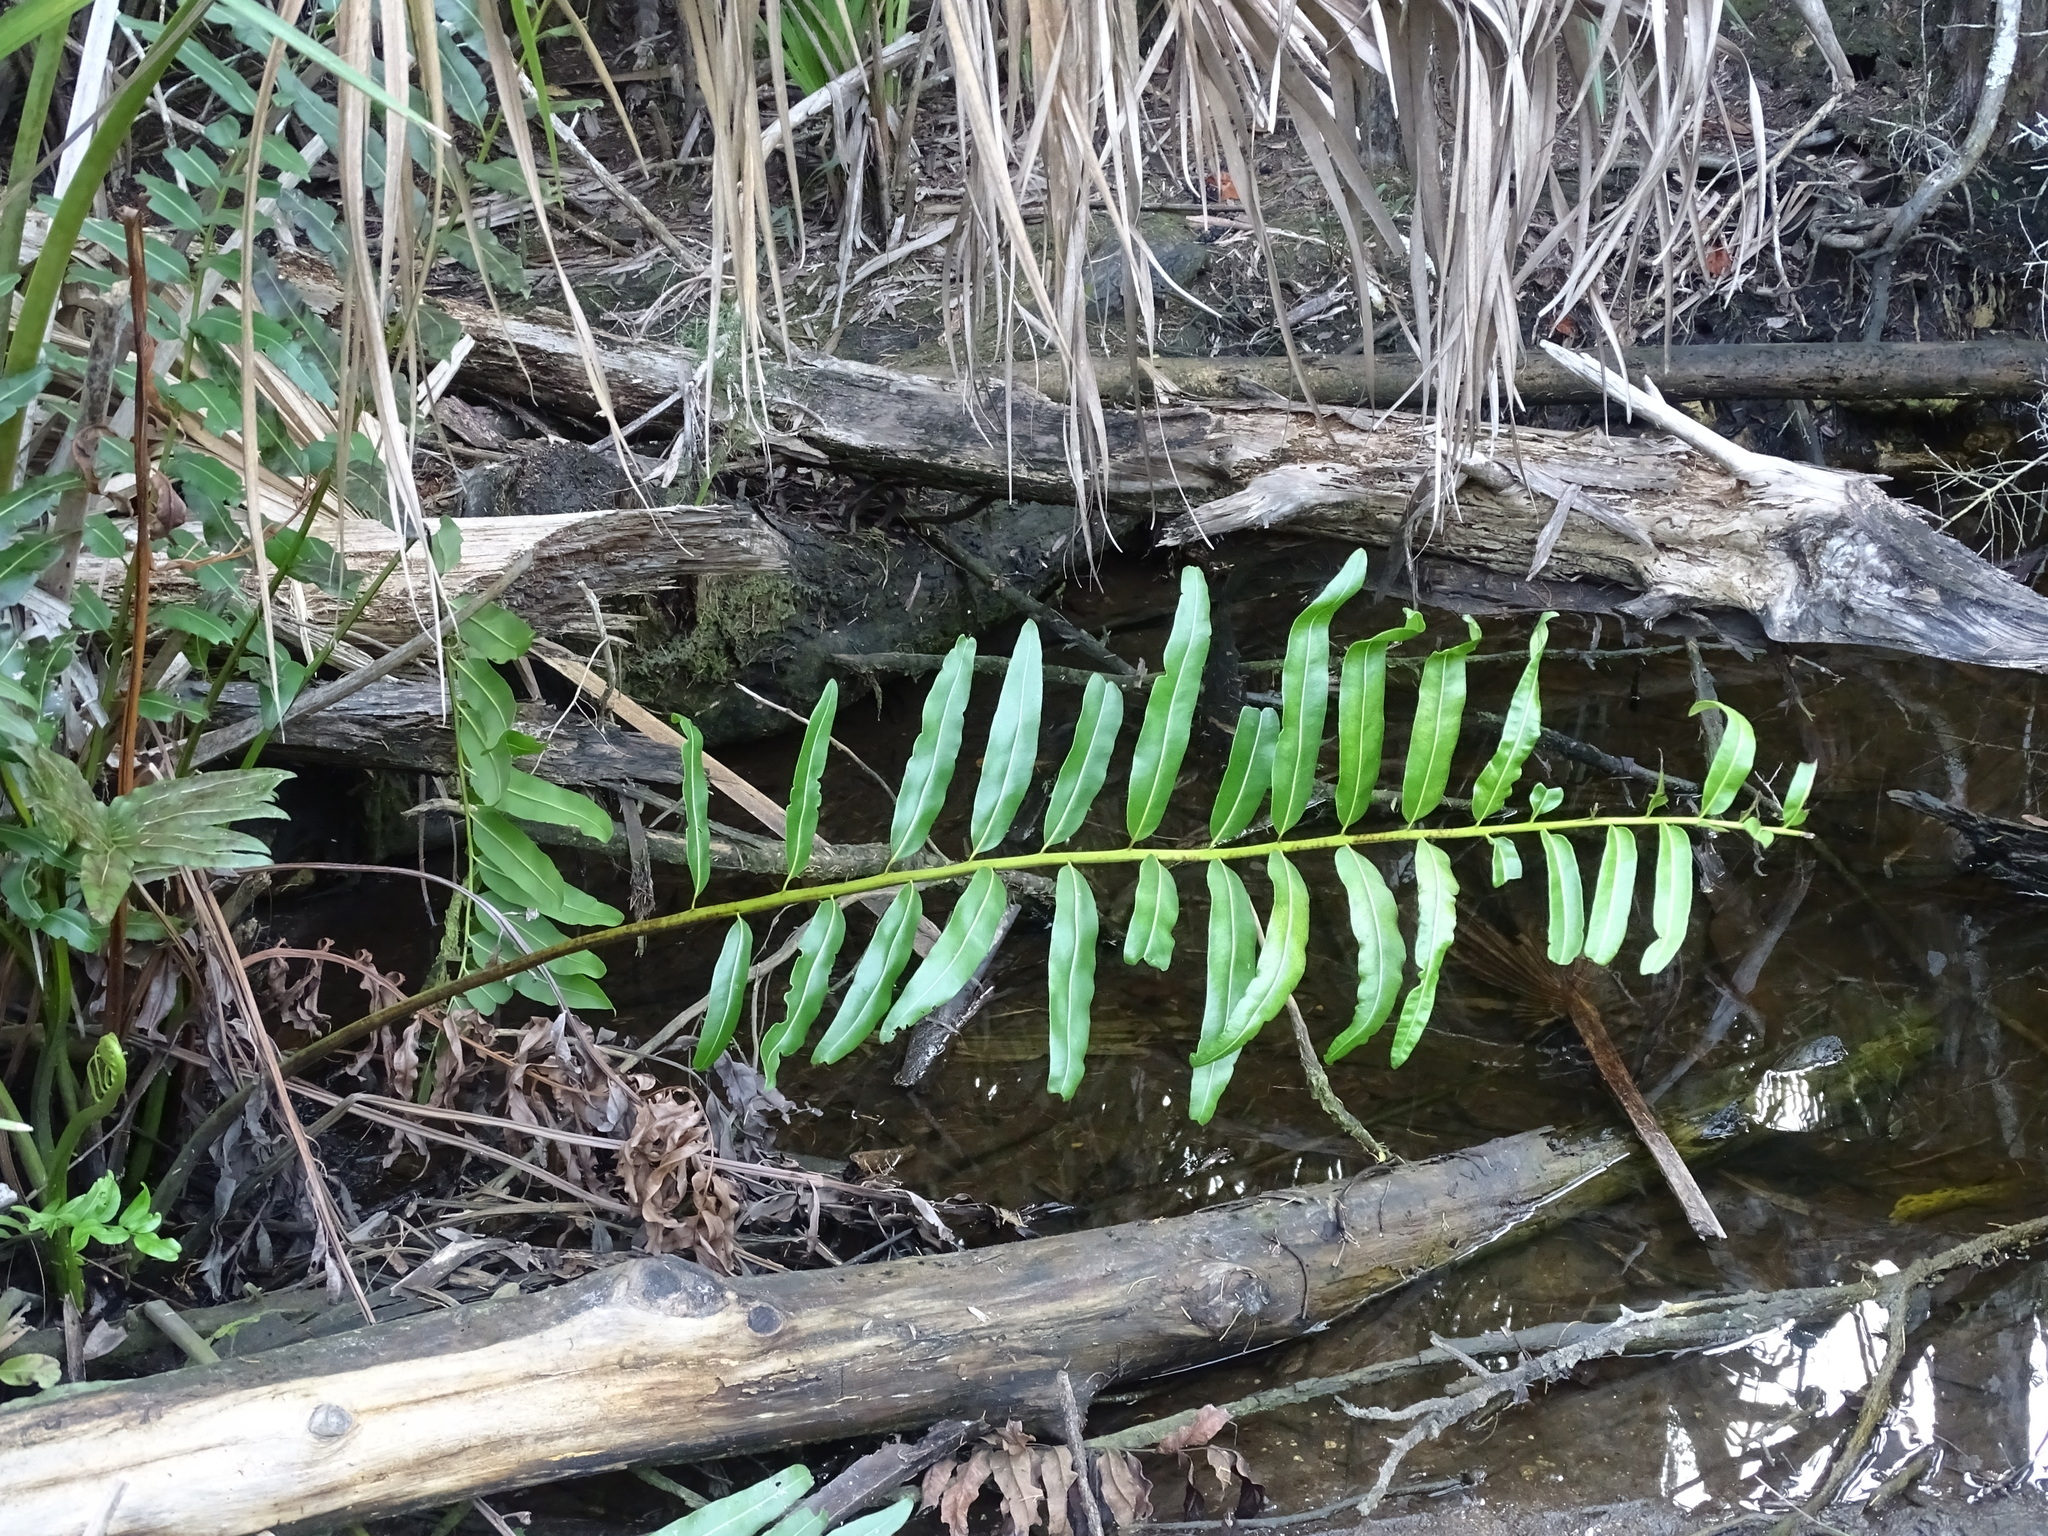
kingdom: Plantae
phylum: Tracheophyta
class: Polypodiopsida
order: Polypodiales
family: Pteridaceae
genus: Acrostichum
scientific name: Acrostichum danaeifolium
